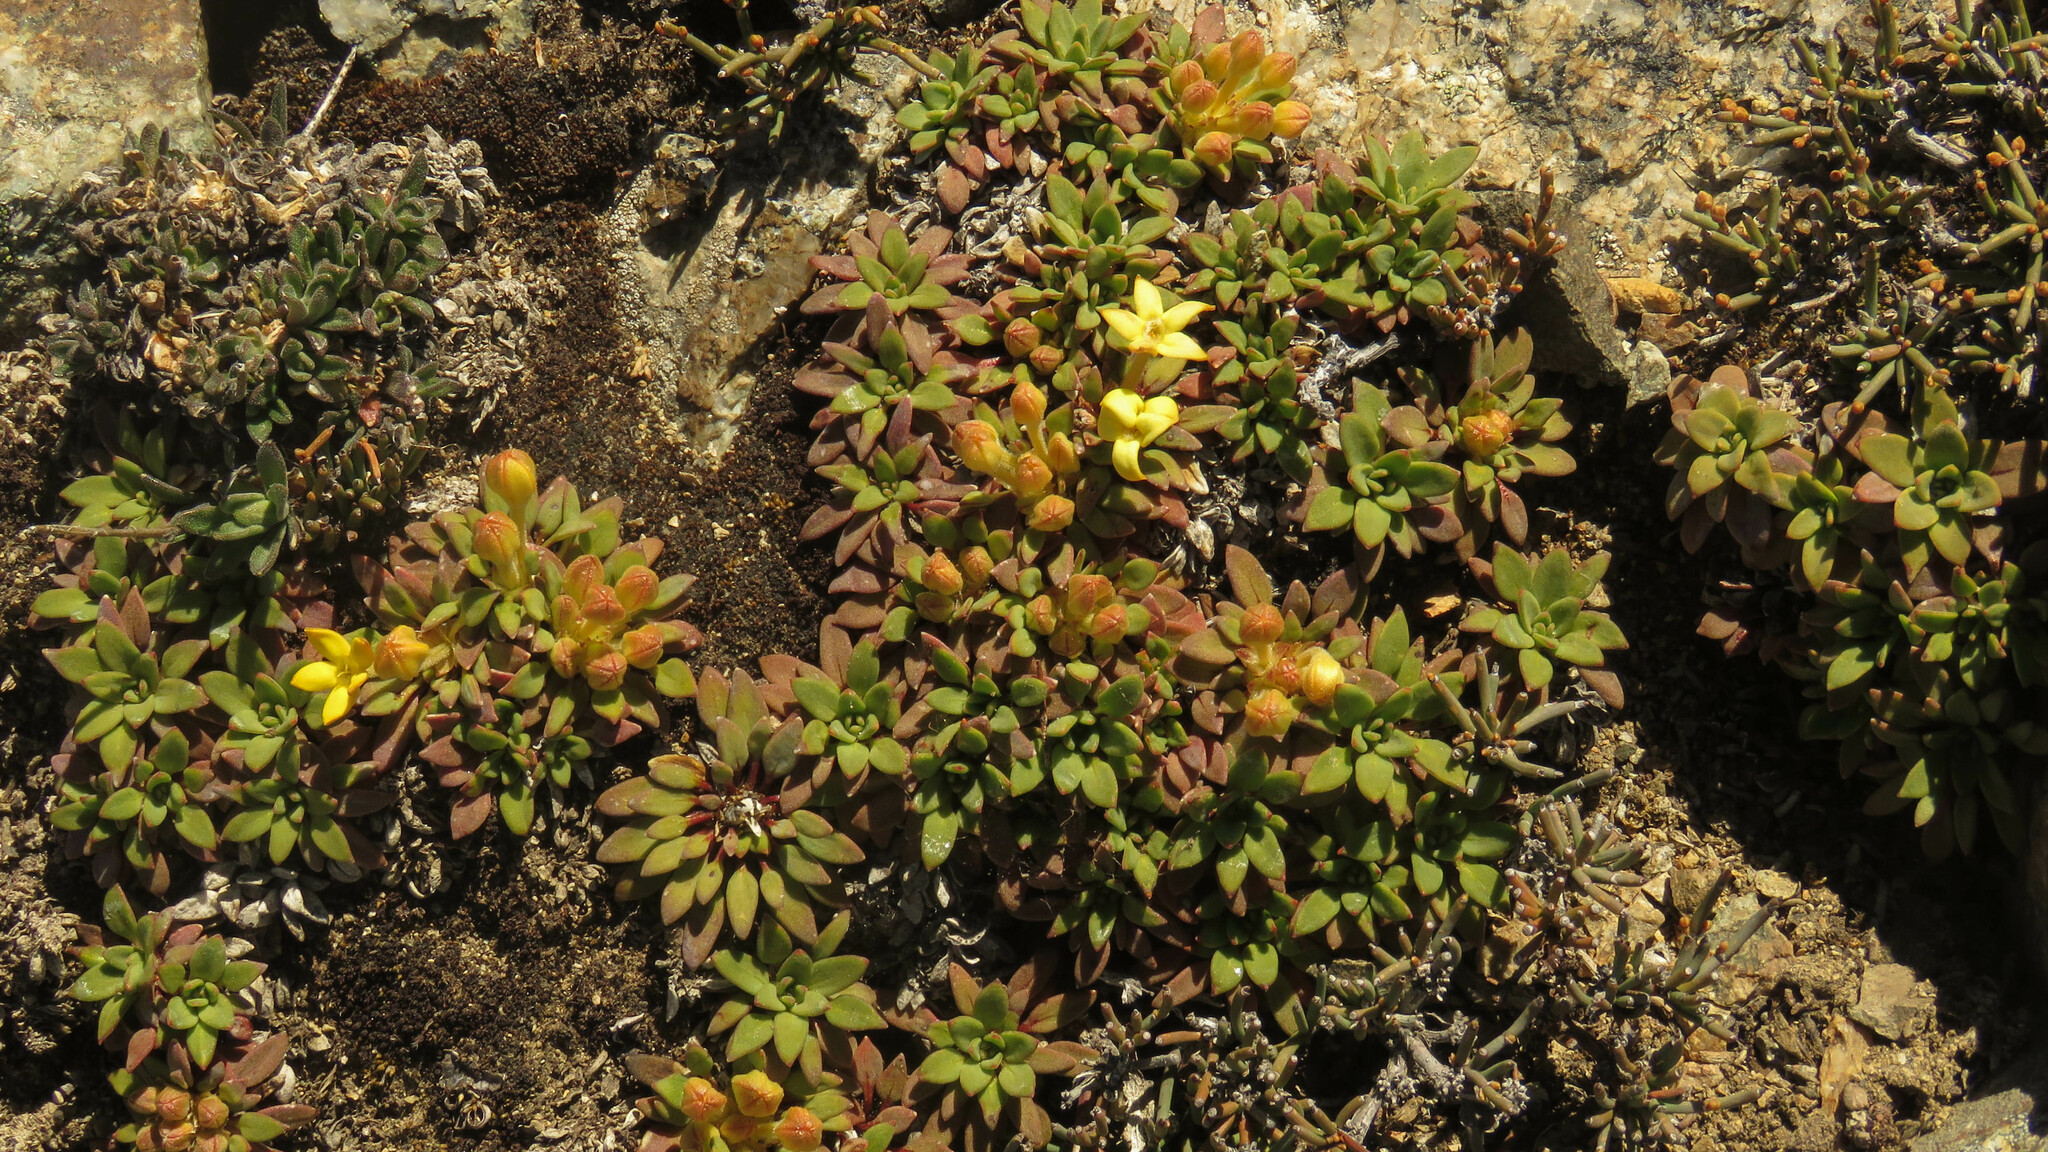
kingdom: Plantae
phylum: Tracheophyta
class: Magnoliopsida
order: Gentianales
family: Rubiaceae
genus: Oreopolus
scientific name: Oreopolus glacialis
